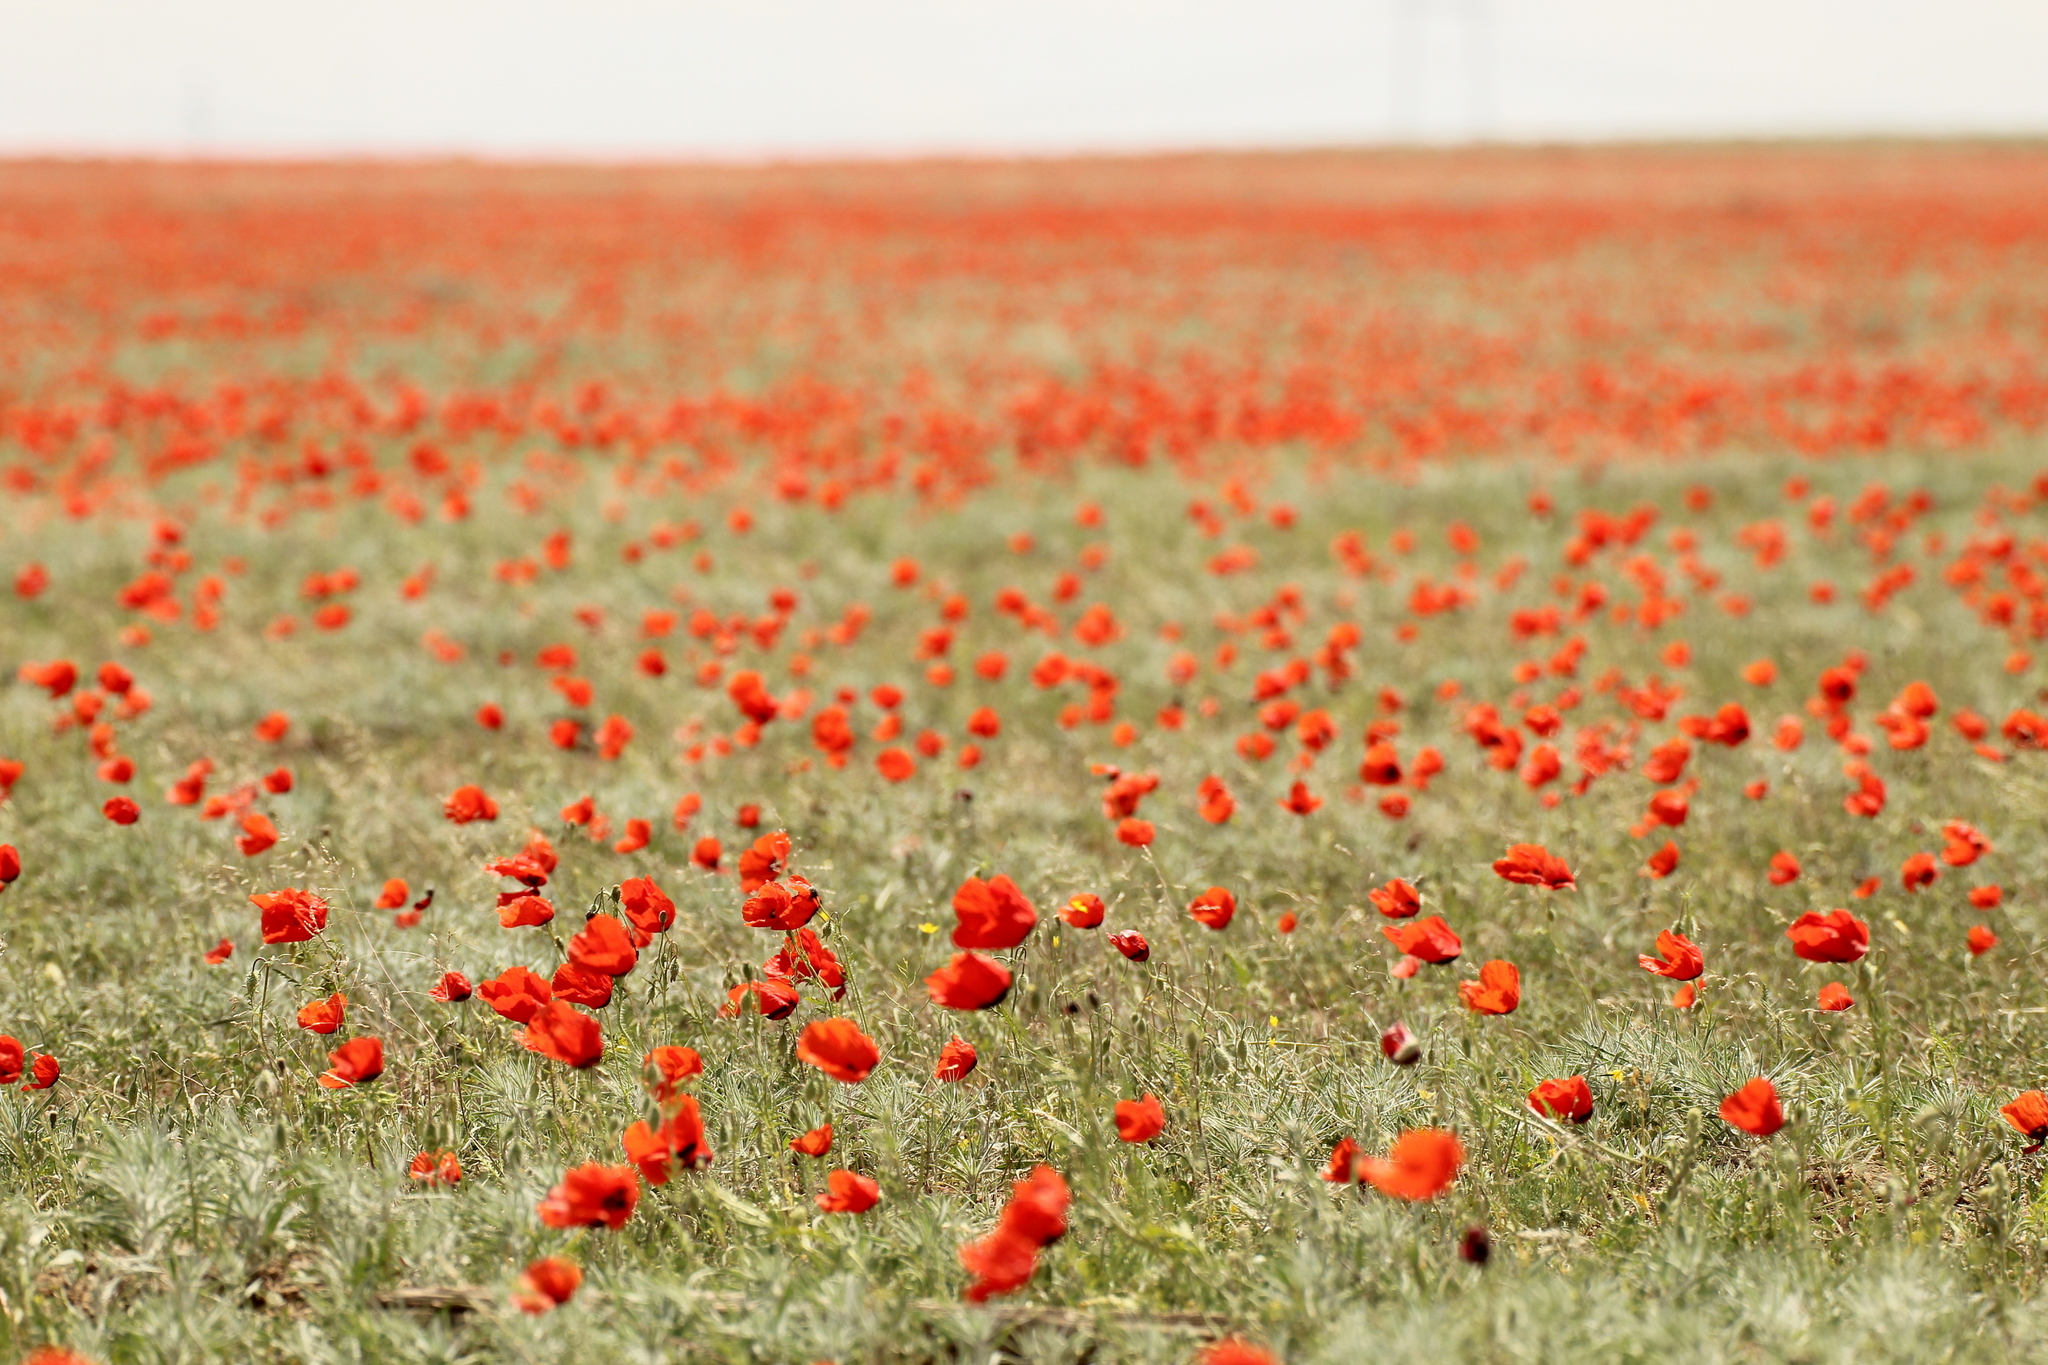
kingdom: Plantae
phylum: Tracheophyta
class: Magnoliopsida
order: Ranunculales
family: Papaveraceae
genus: Roemeria
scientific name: Roemeria pavonina
